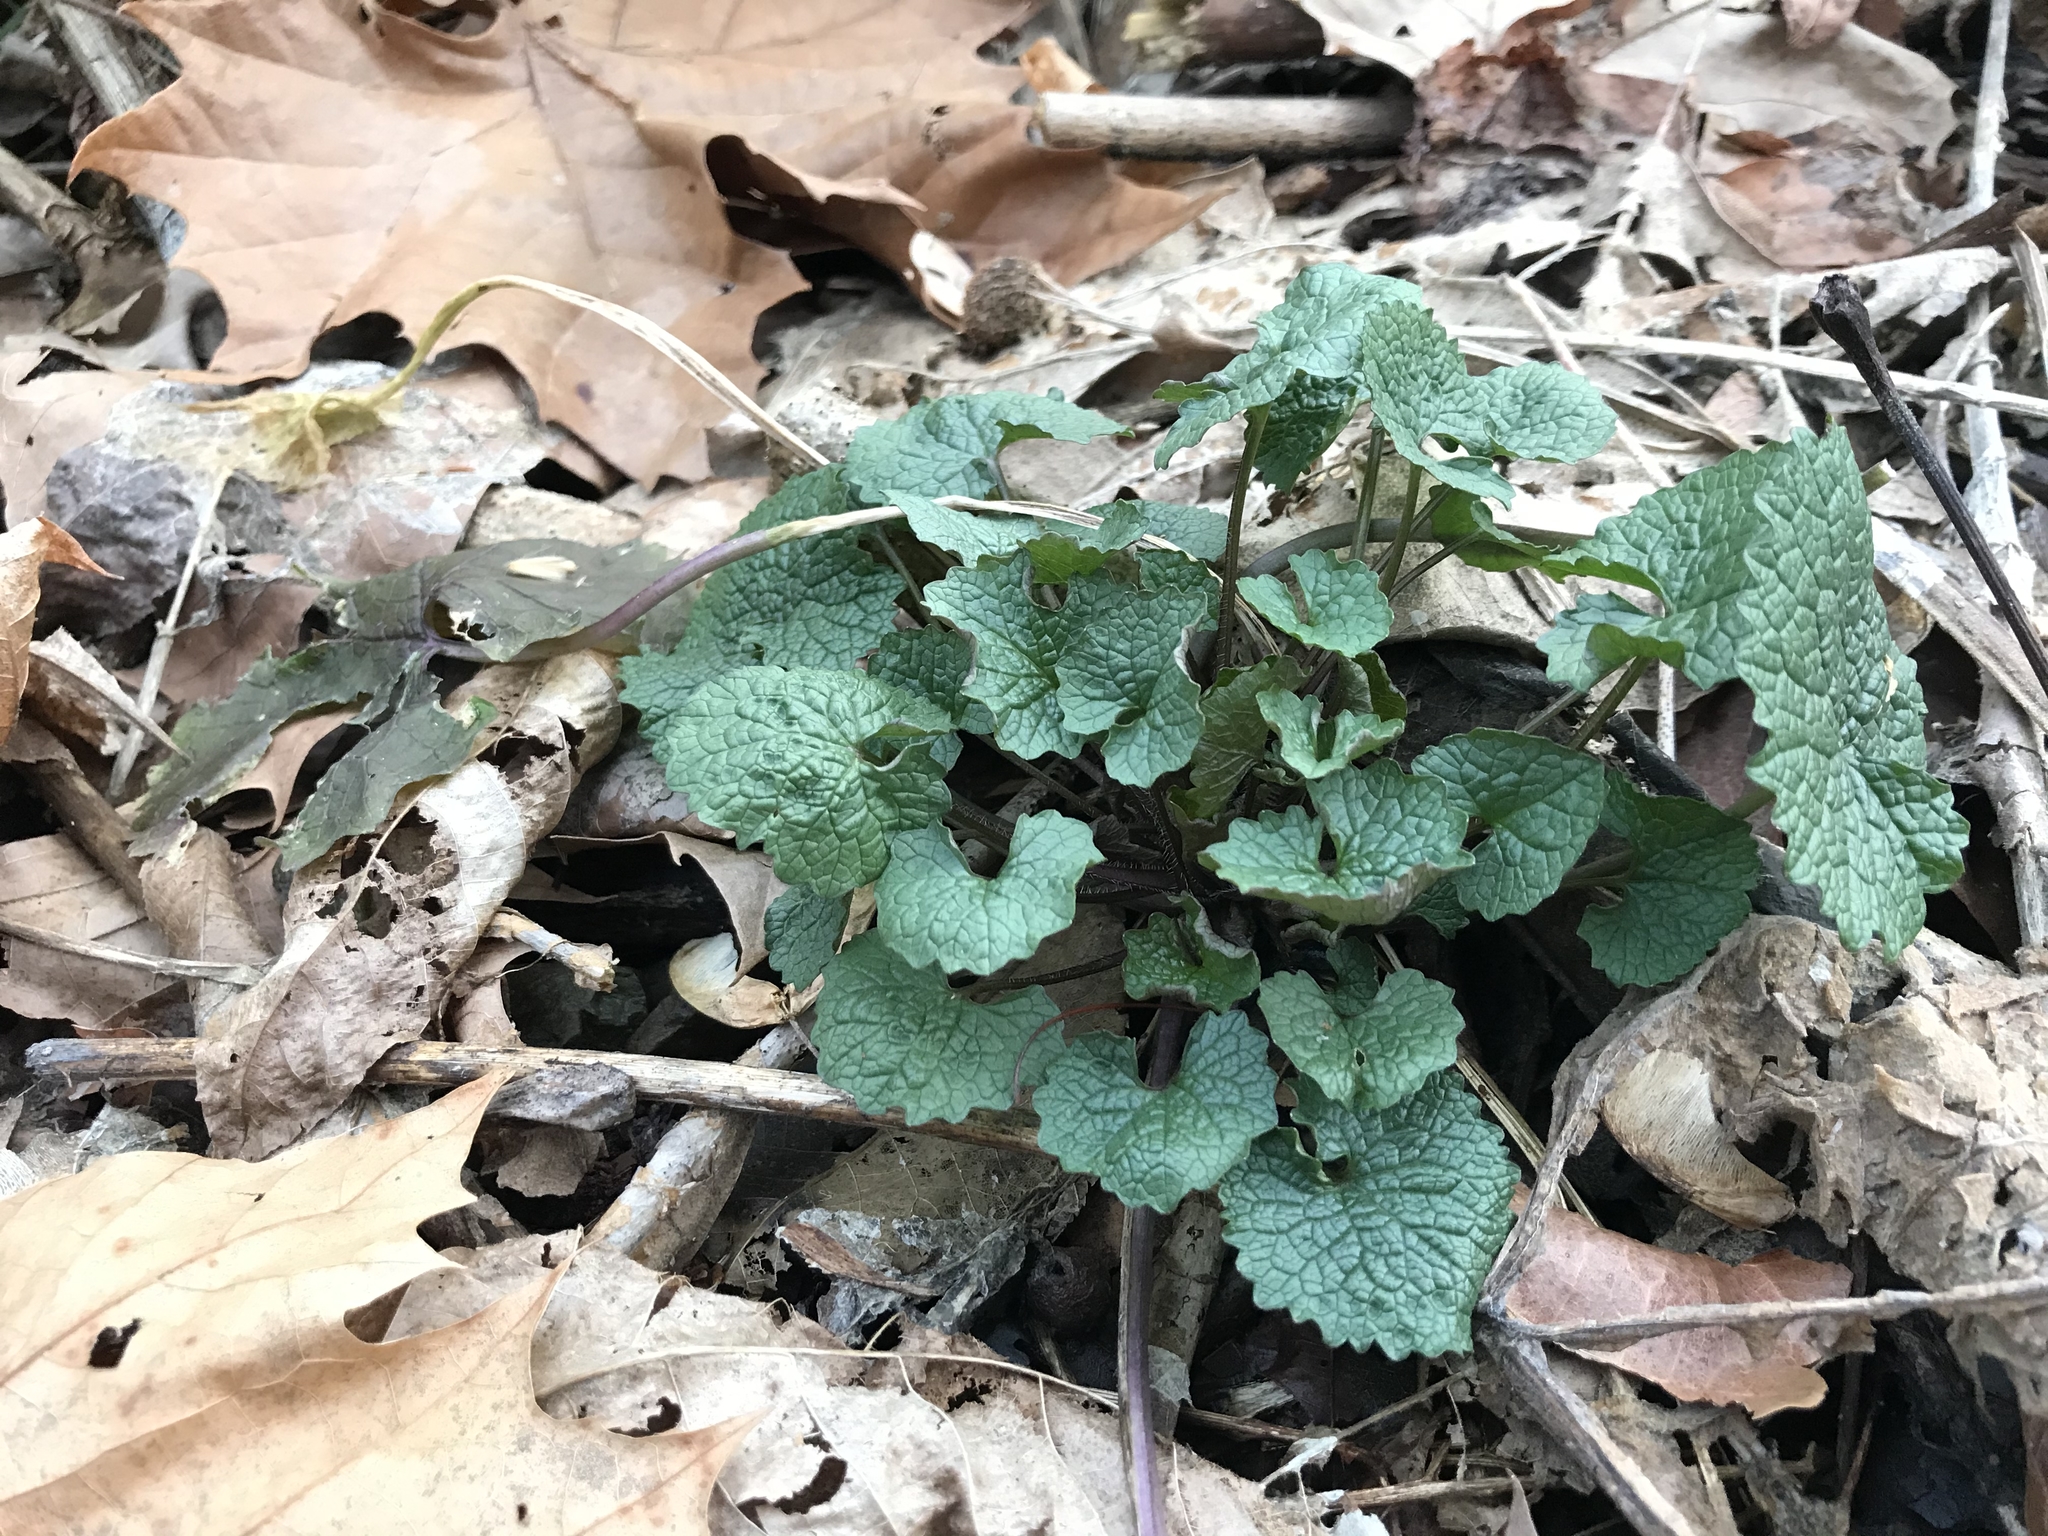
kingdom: Plantae
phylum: Tracheophyta
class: Magnoliopsida
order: Brassicales
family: Brassicaceae
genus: Alliaria
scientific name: Alliaria petiolata
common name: Garlic mustard
